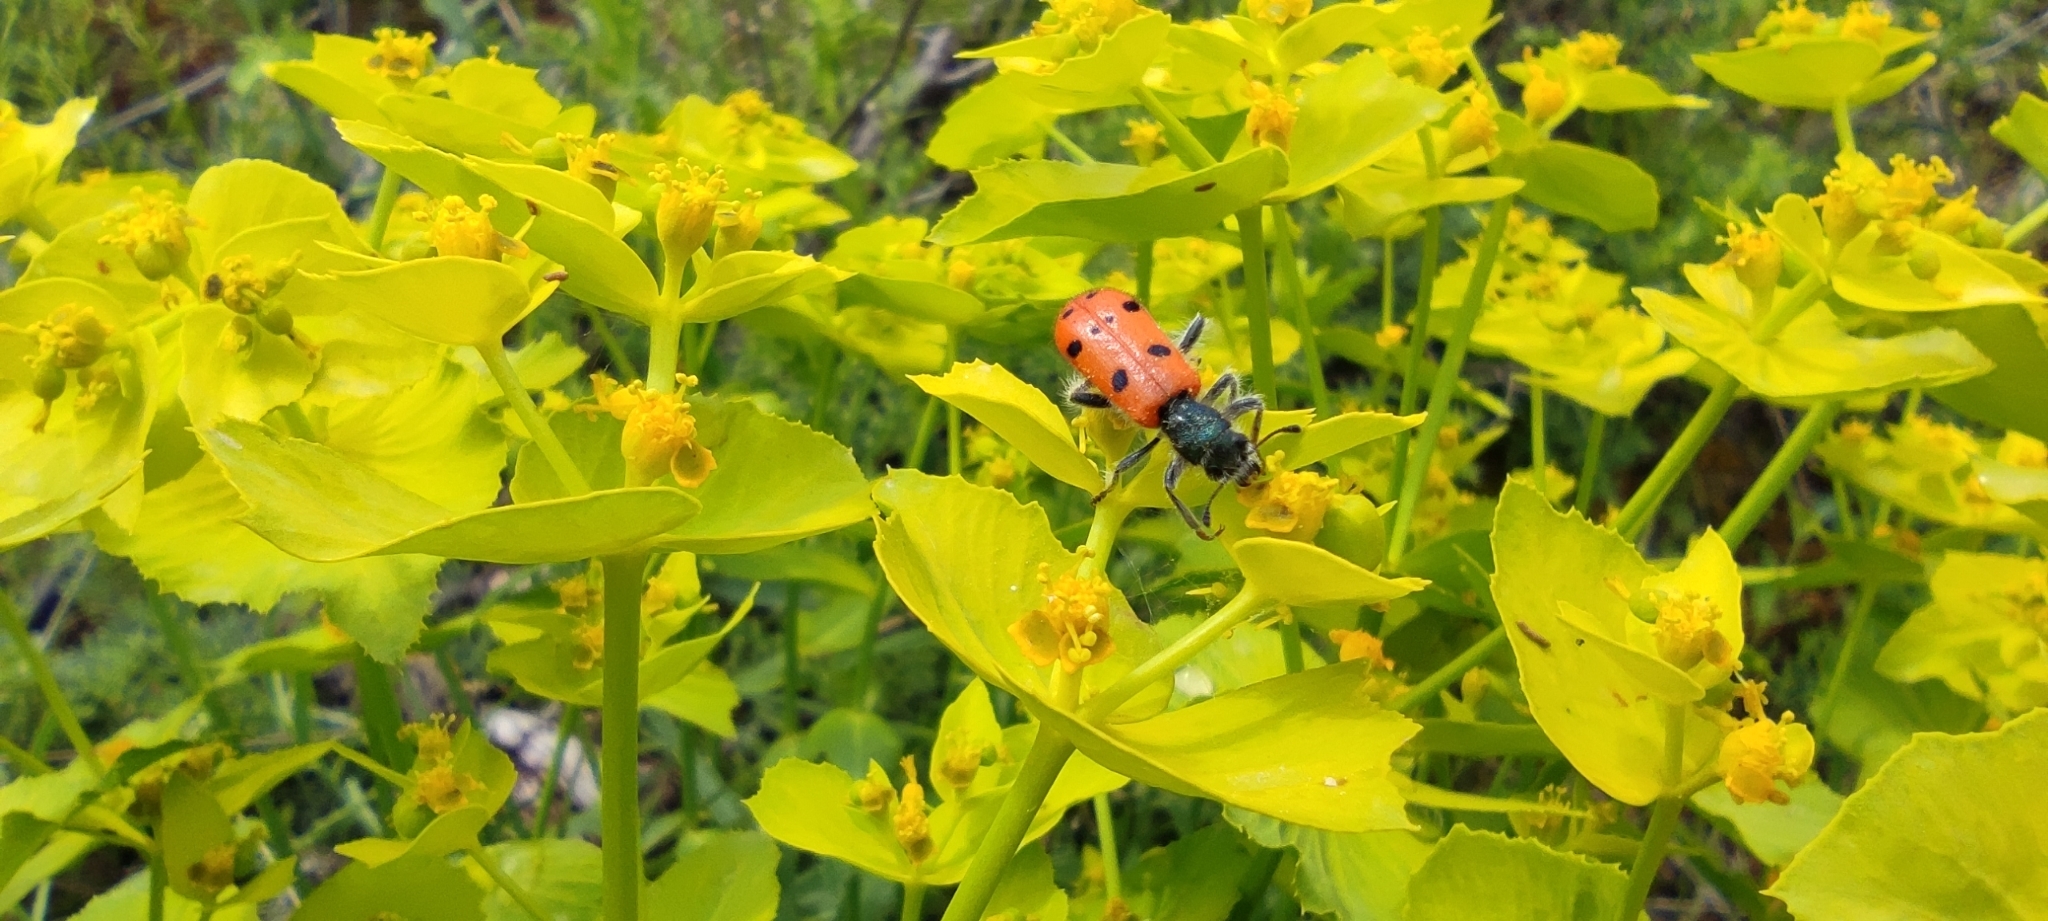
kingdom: Animalia
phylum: Arthropoda
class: Insecta
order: Coleoptera
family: Cleridae
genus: Trichodes
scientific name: Trichodes octopunctatus
